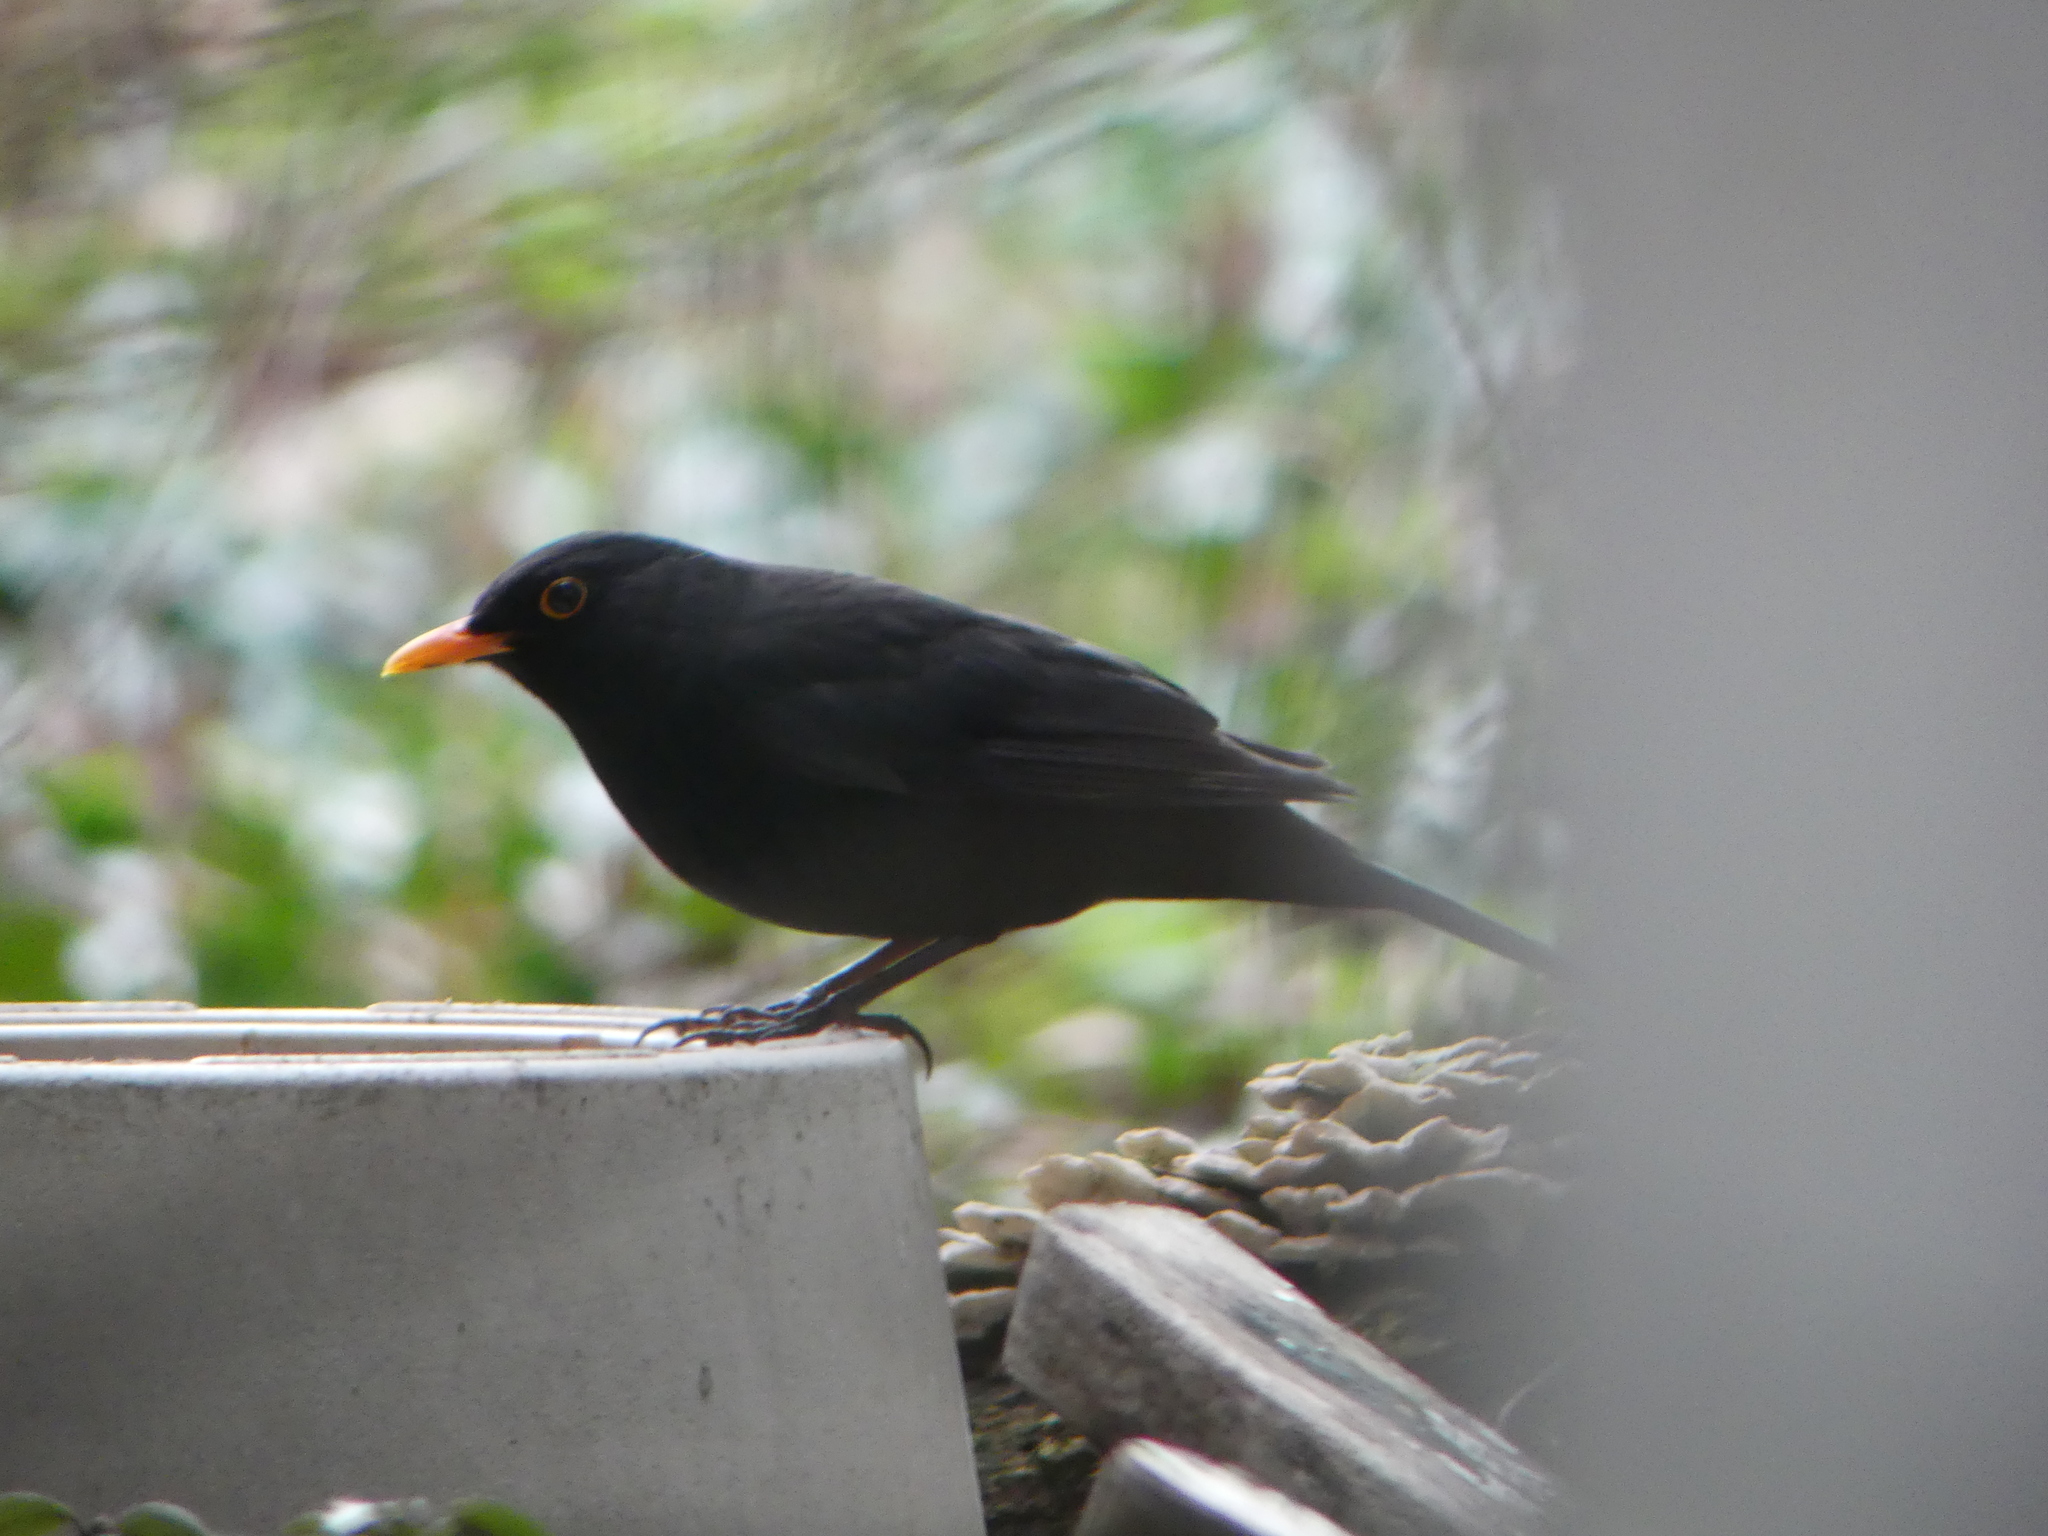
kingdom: Animalia
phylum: Chordata
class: Aves
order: Passeriformes
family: Turdidae
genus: Turdus
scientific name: Turdus merula
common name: Common blackbird
